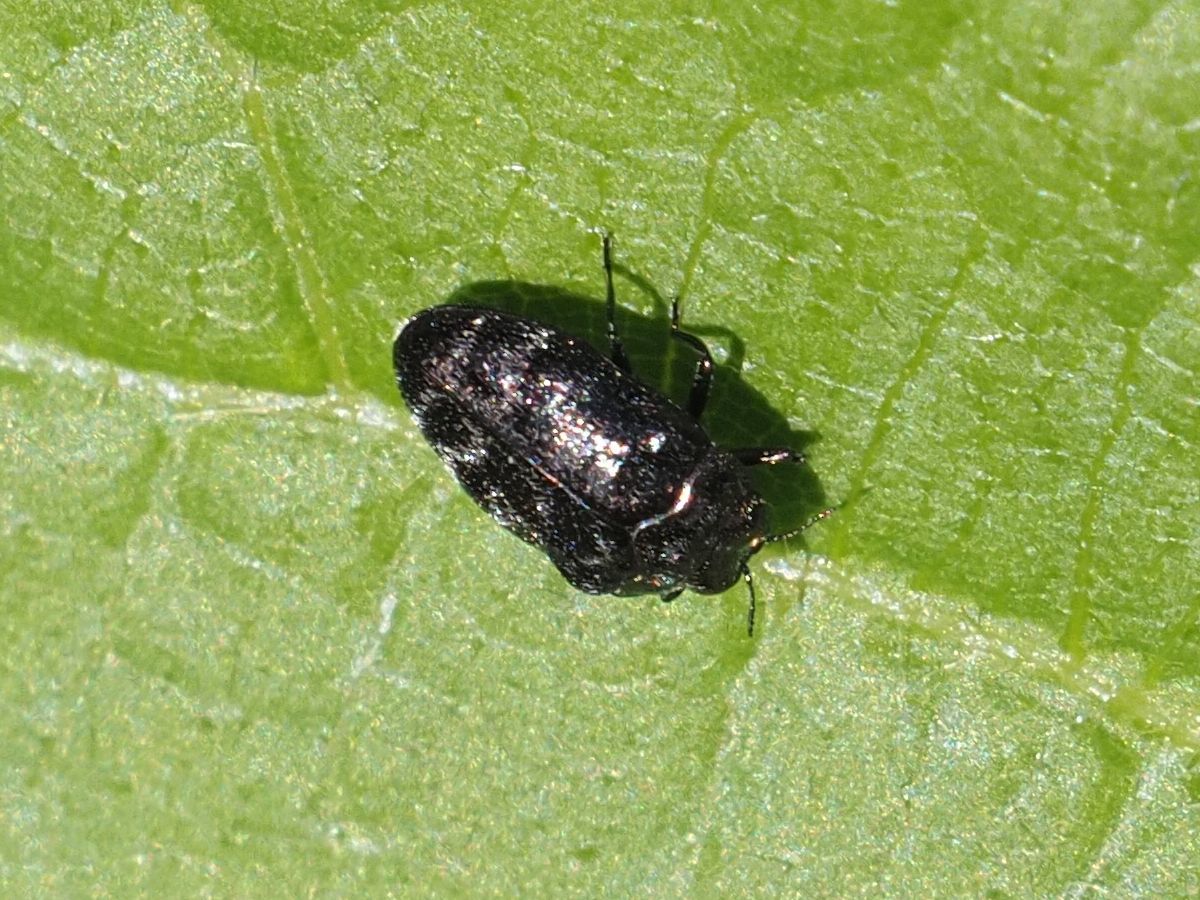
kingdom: Animalia
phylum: Arthropoda
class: Insecta
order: Coleoptera
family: Buprestidae
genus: Trachys
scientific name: Trachys minutus
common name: Metallic wood-boring beetle
